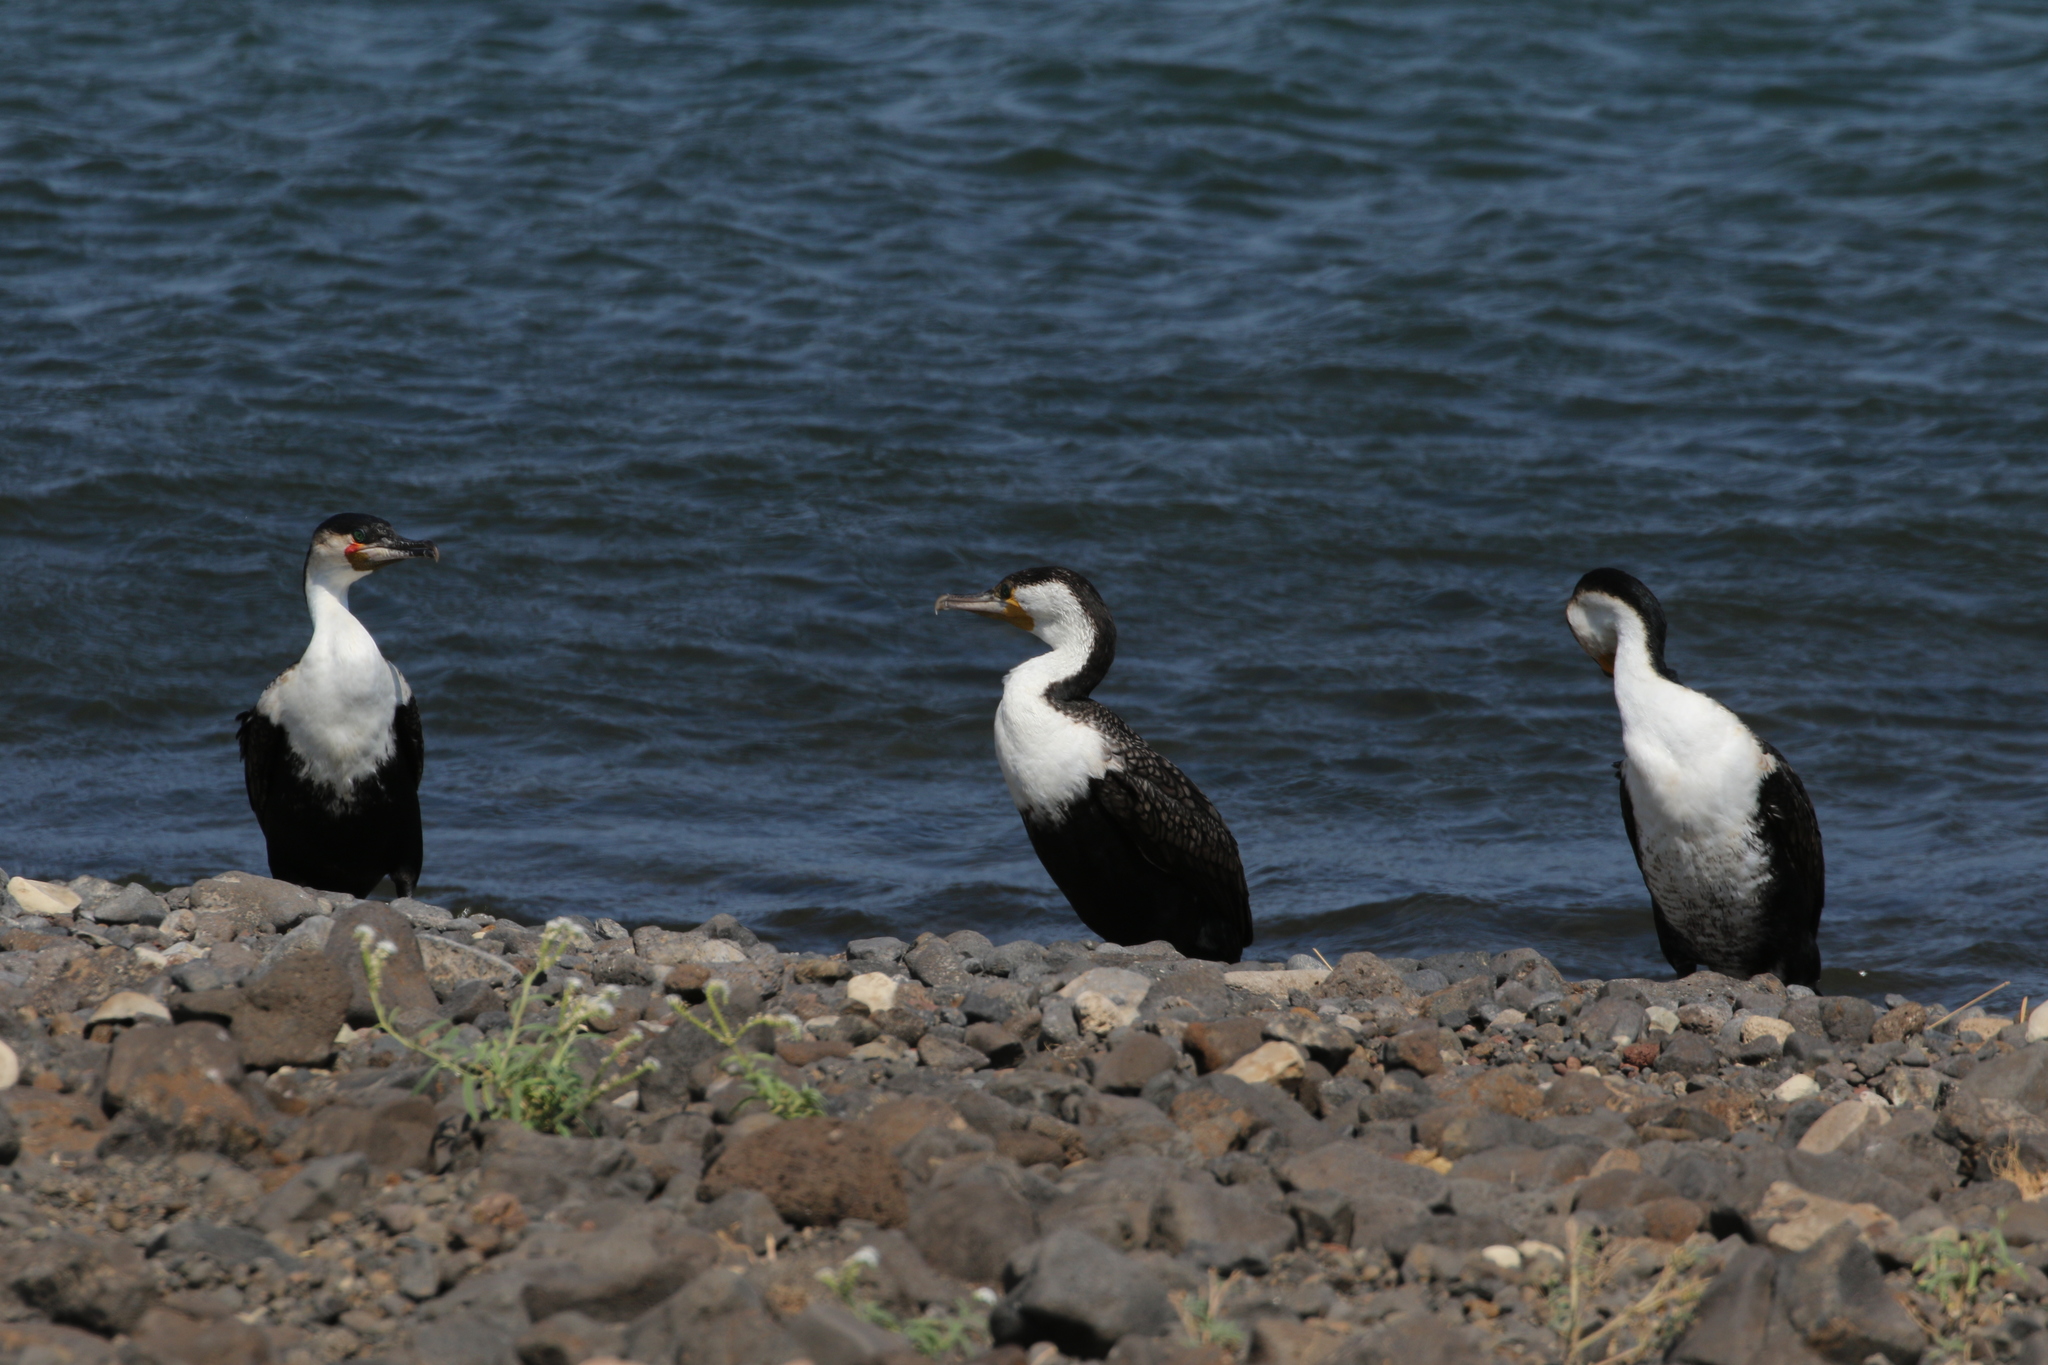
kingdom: Animalia
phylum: Chordata
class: Aves
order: Suliformes
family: Phalacrocoracidae
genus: Phalacrocorax
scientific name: Phalacrocorax carbo
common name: Great cormorant
